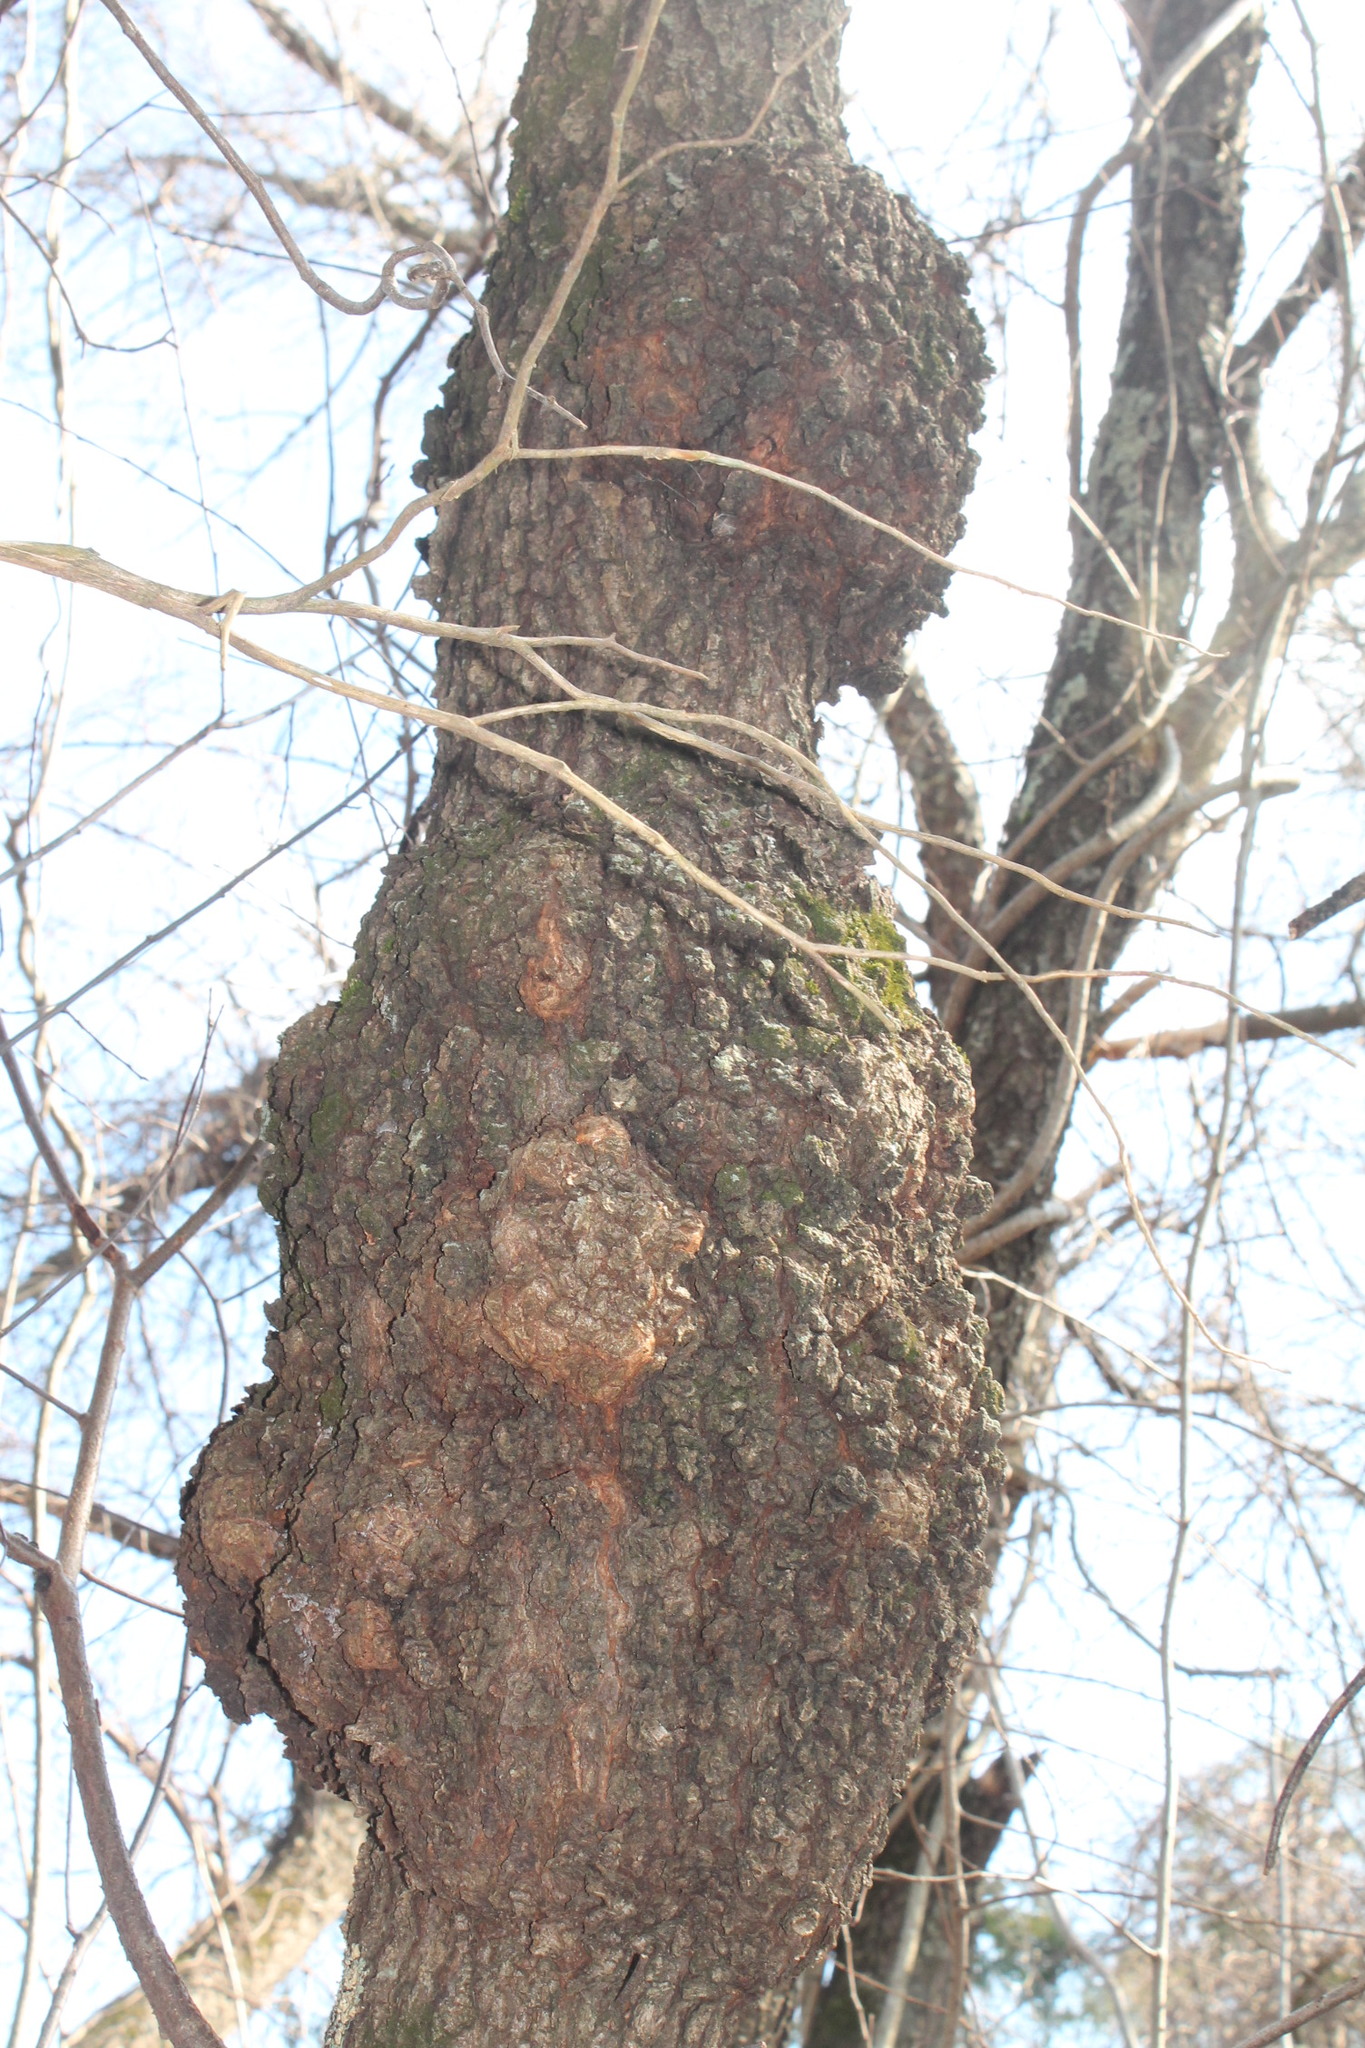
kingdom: Bacteria
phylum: Proteobacteria
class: Alphaproteobacteria
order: Rhizobiales
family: Rhizobiaceae
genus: Rhizobium
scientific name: Rhizobium Agrobacterium radiobacter
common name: Bacterial crown gall
